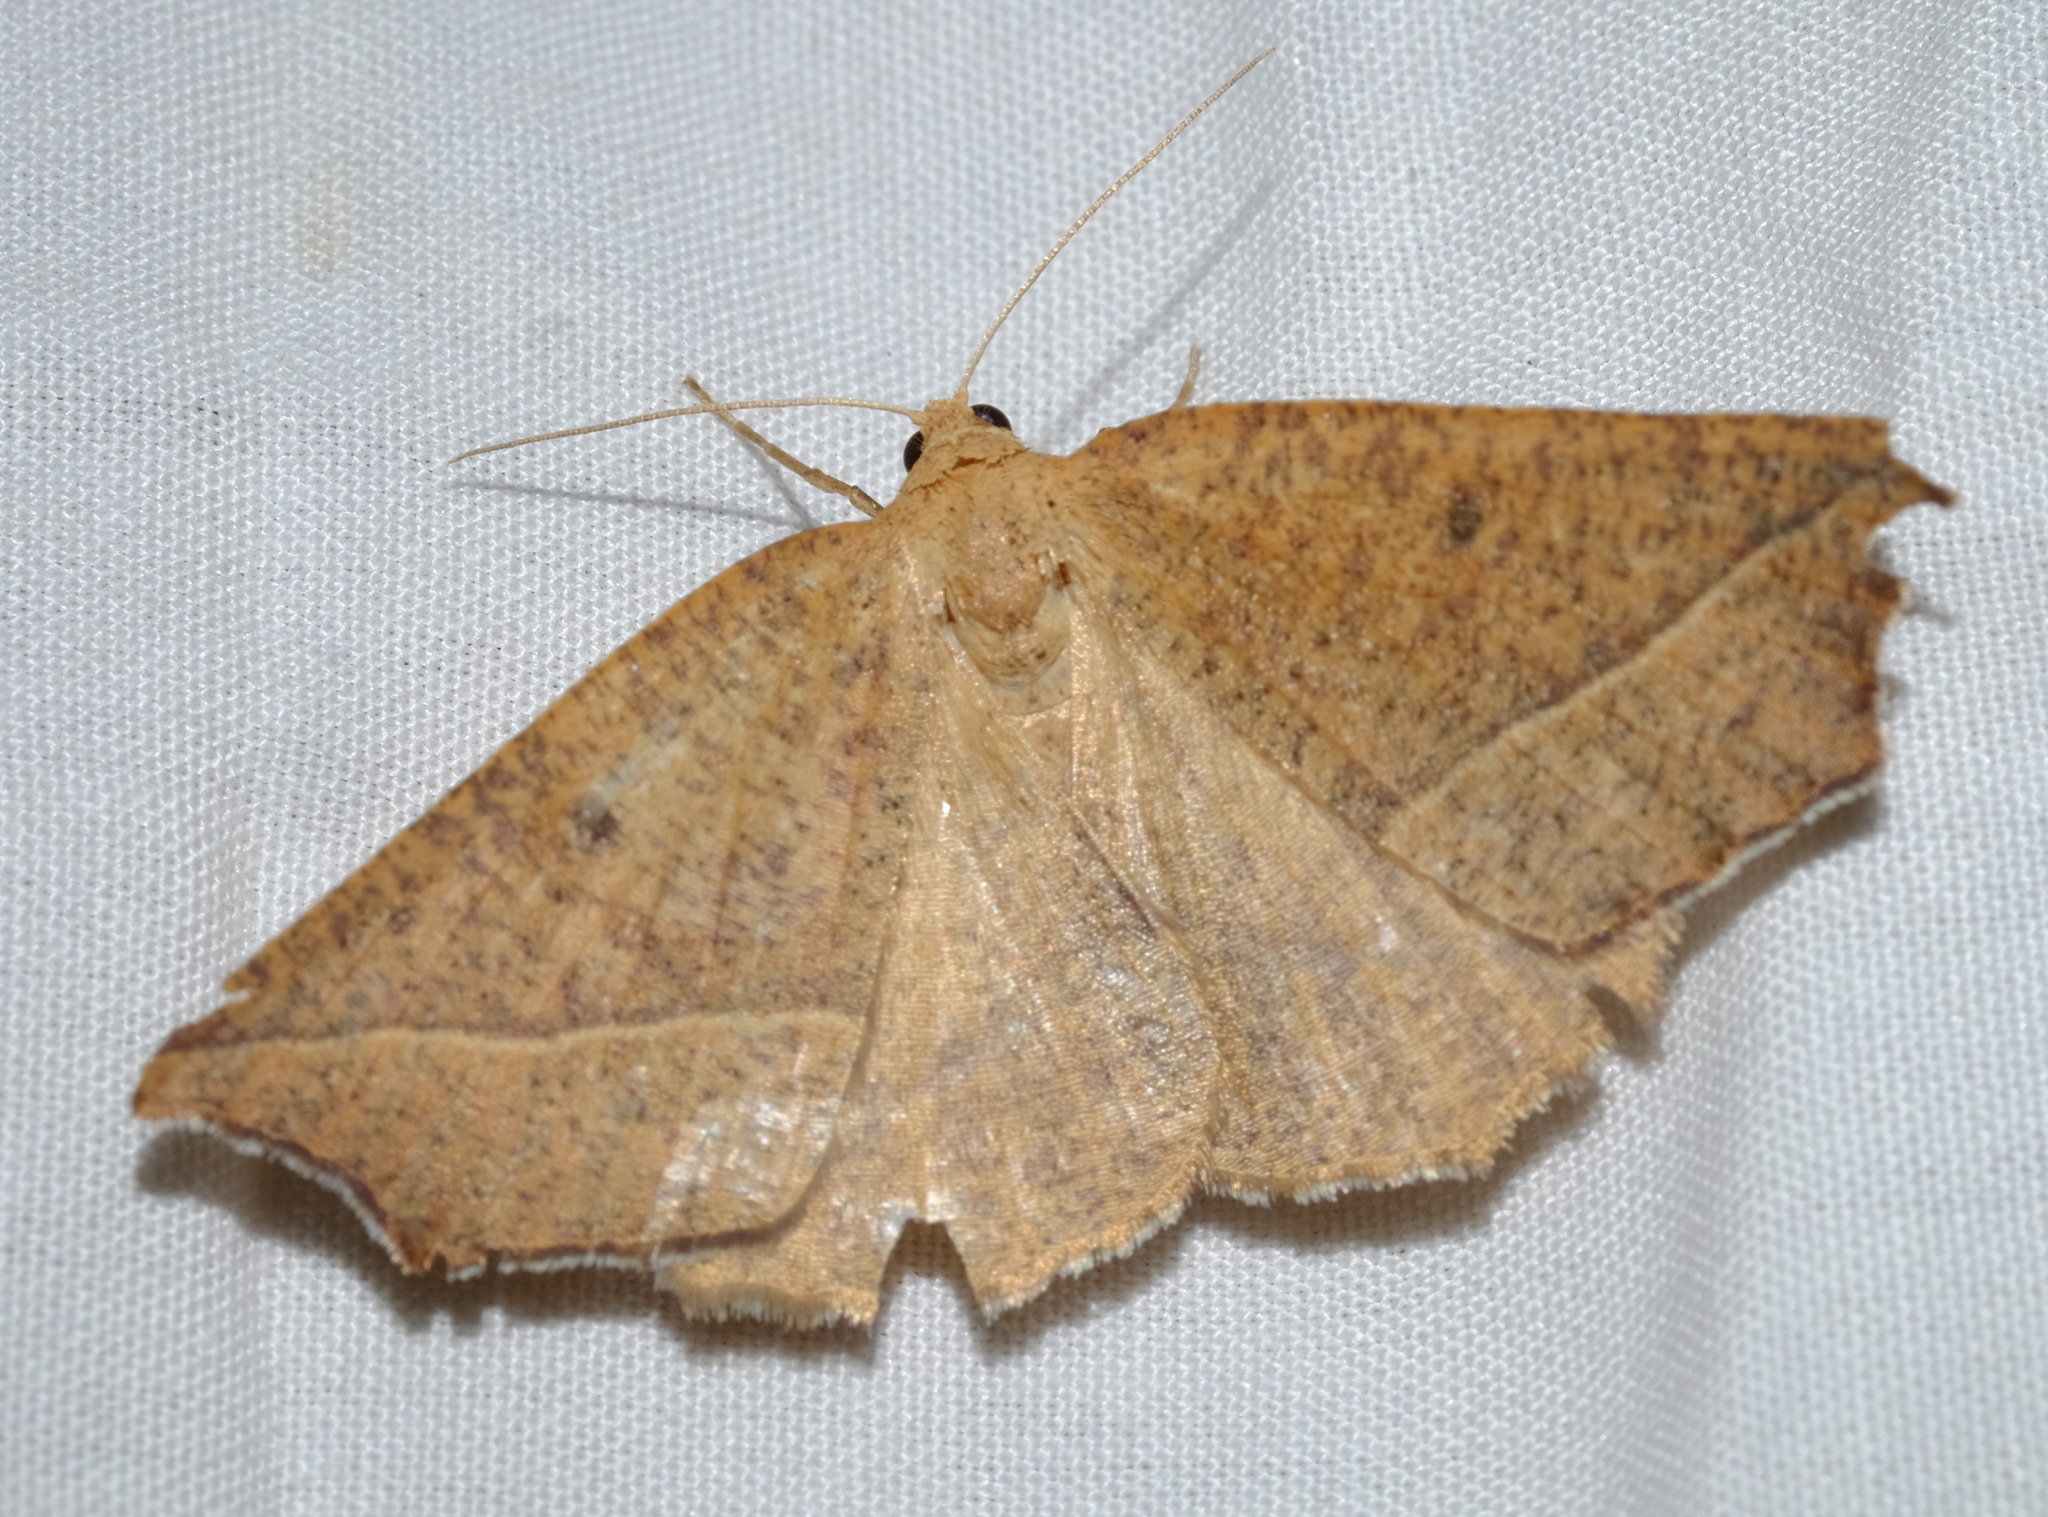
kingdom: Animalia
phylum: Arthropoda
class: Insecta
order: Lepidoptera
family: Geometridae
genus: Microsema
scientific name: Microsema
